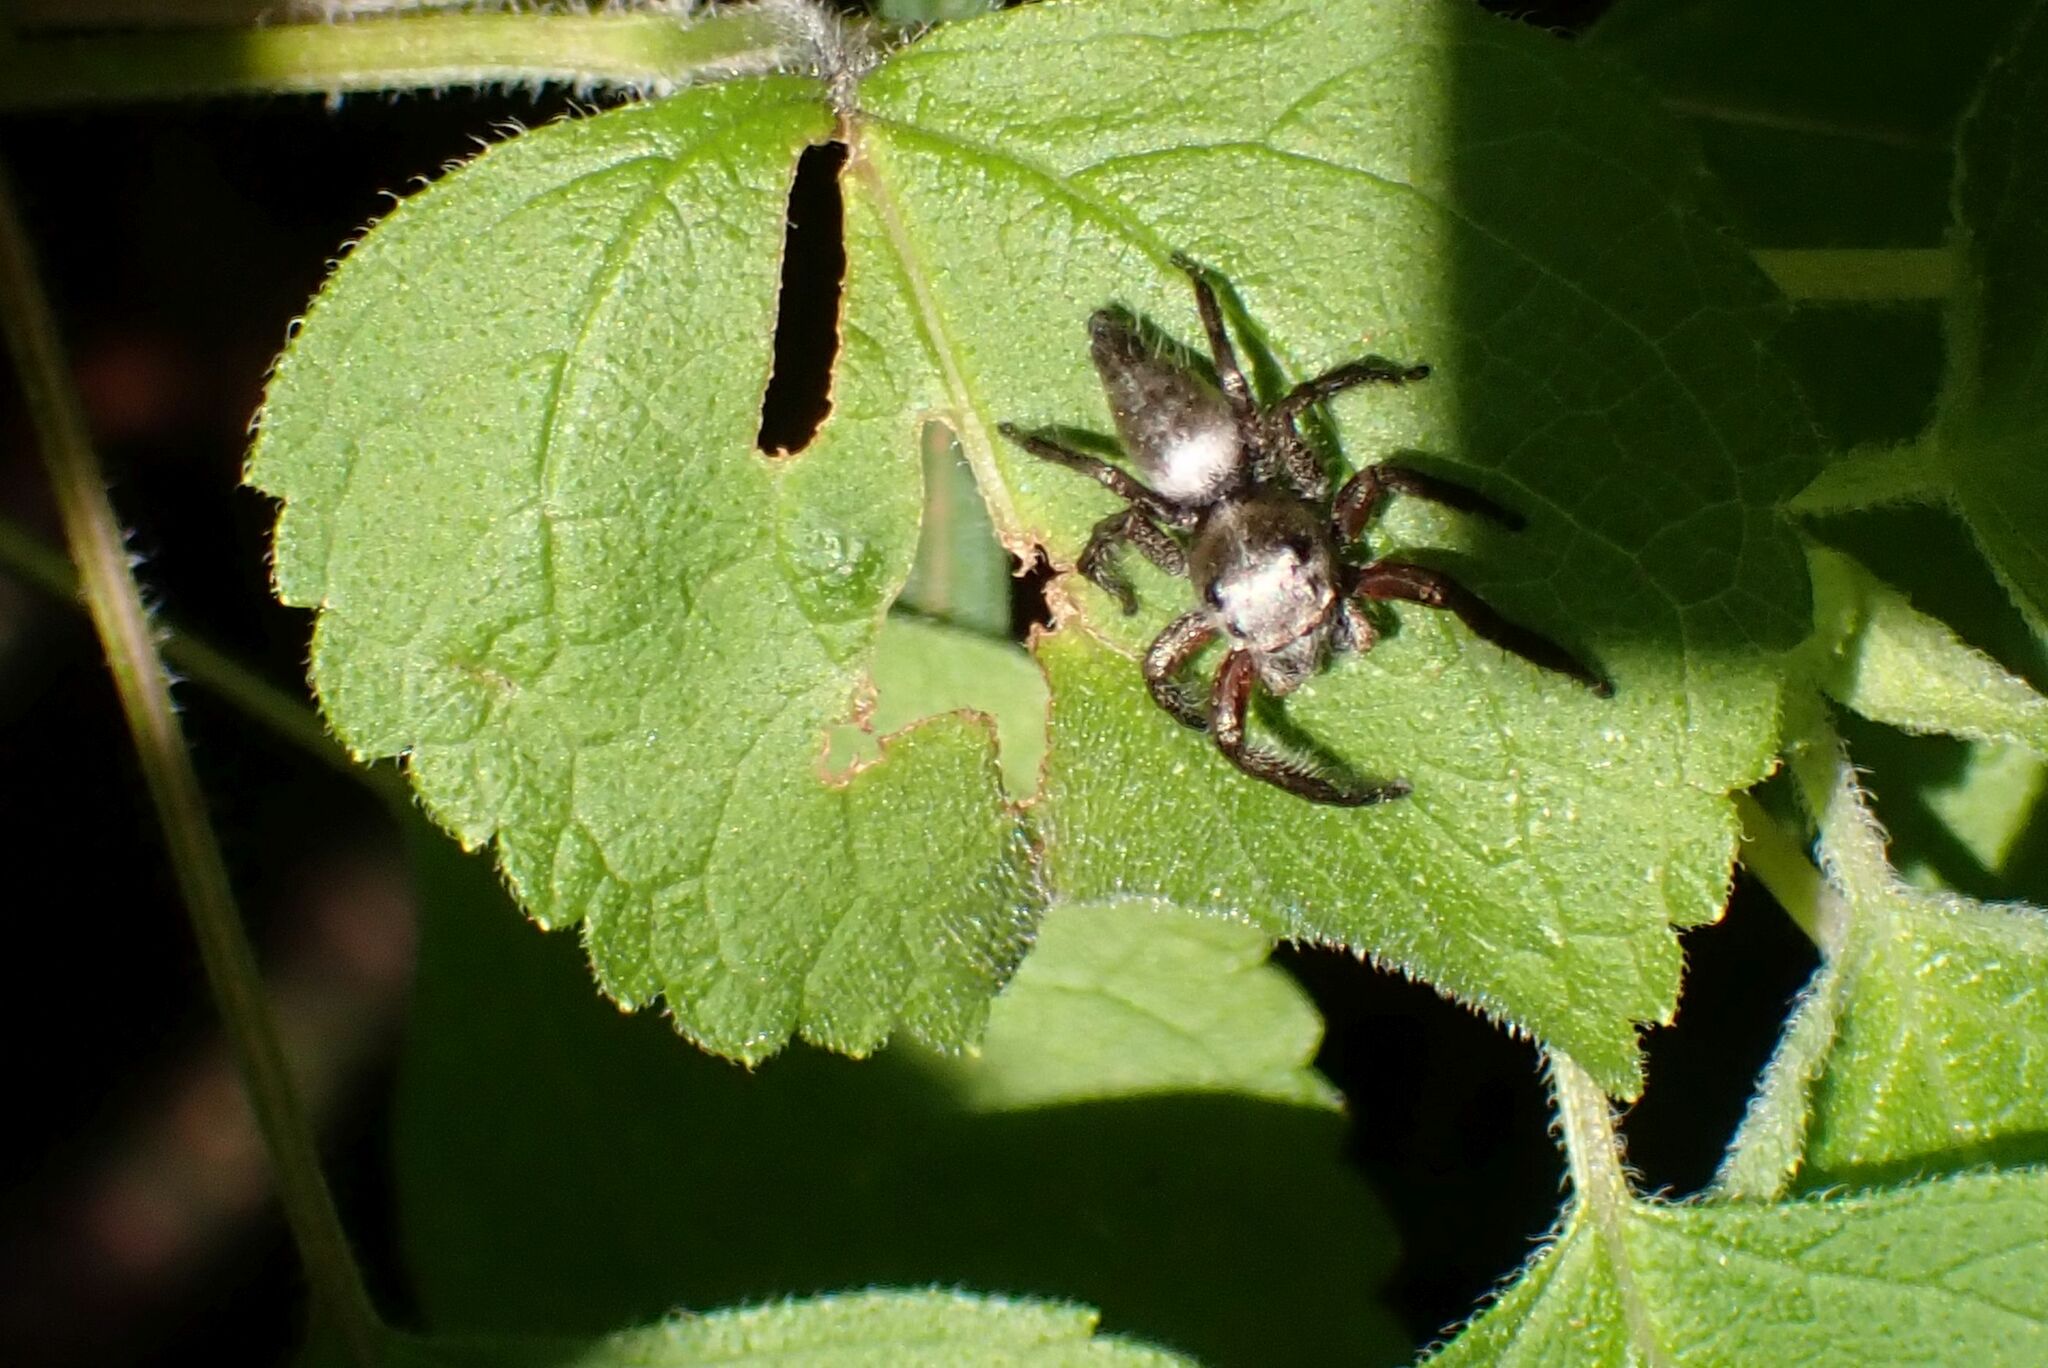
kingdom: Animalia
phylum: Arthropoda
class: Arachnida
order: Araneae
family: Salticidae
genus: Hyllus
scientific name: Hyllus brevitarsis
